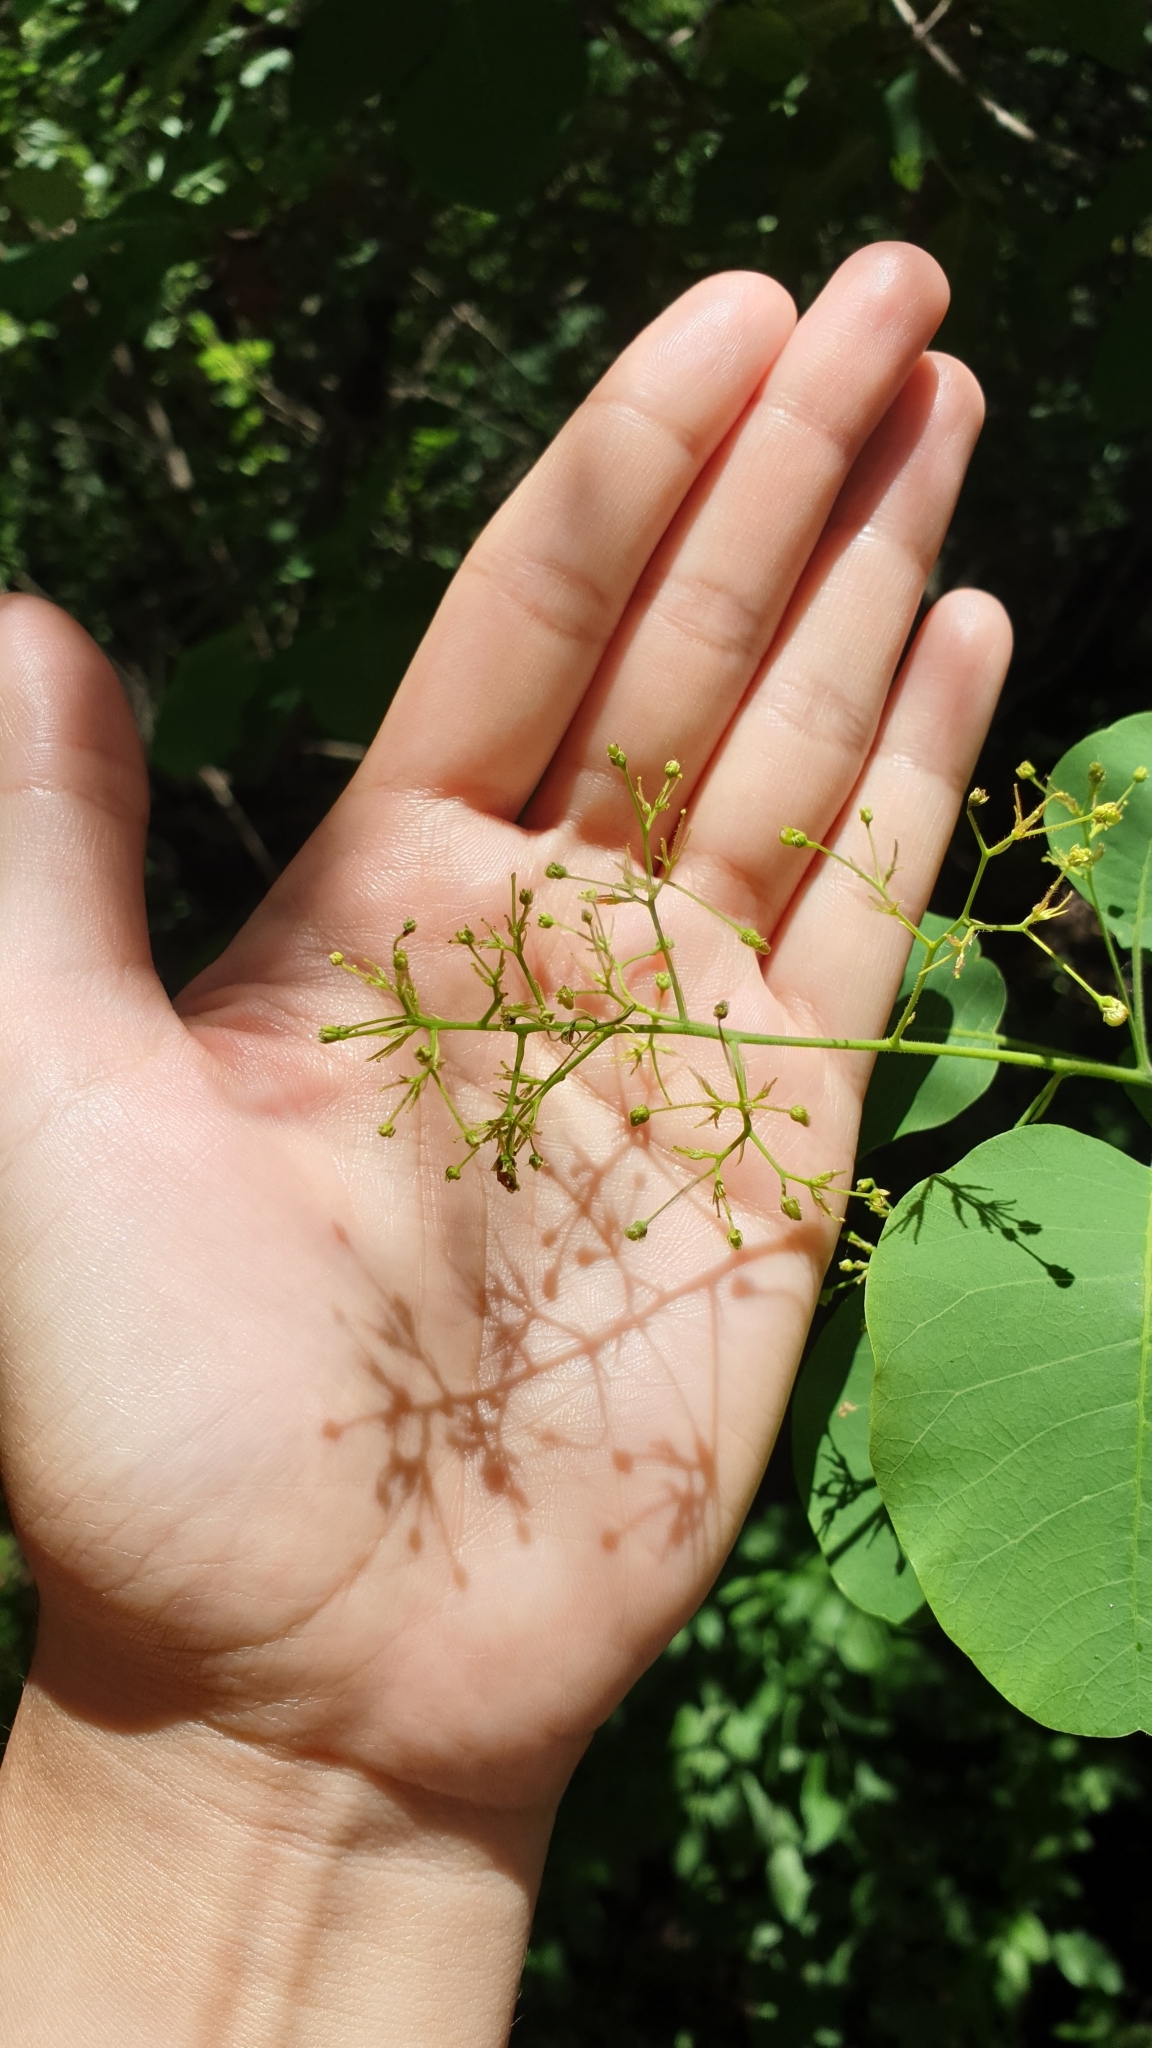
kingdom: Plantae
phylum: Tracheophyta
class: Magnoliopsida
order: Sapindales
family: Anacardiaceae
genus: Cotinus
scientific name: Cotinus coggygria
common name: Smoke-tree
